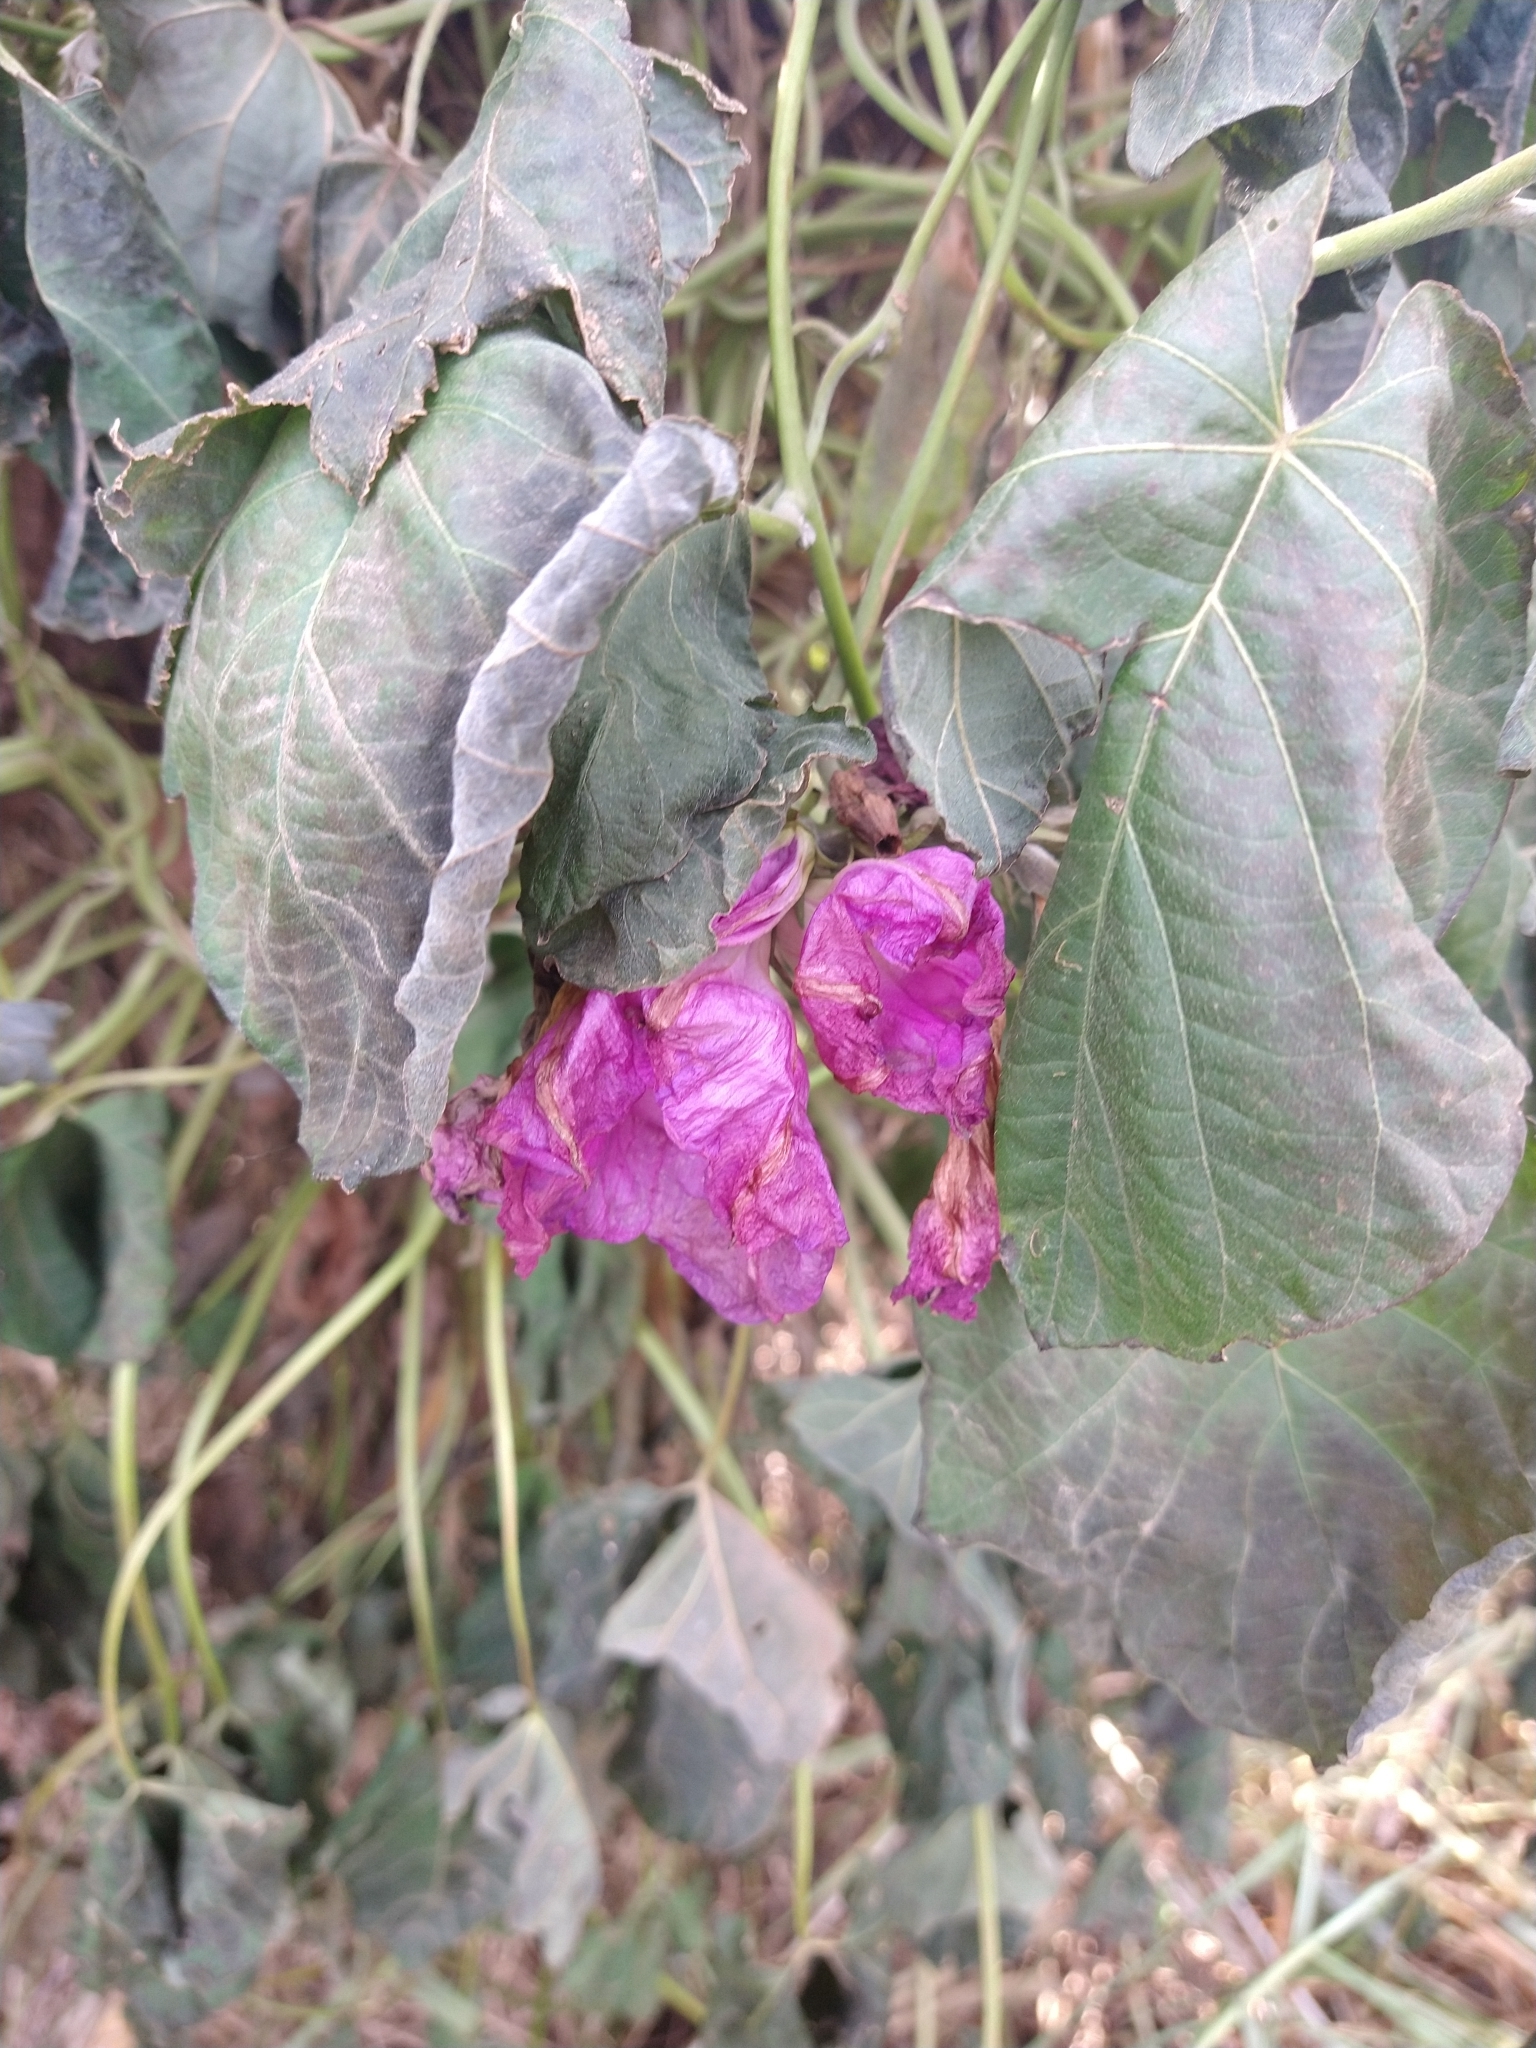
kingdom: Plantae
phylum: Tracheophyta
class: Magnoliopsida
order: Solanales
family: Convolvulaceae
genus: Ipomoea
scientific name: Ipomoea indica
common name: Blue dawnflower
